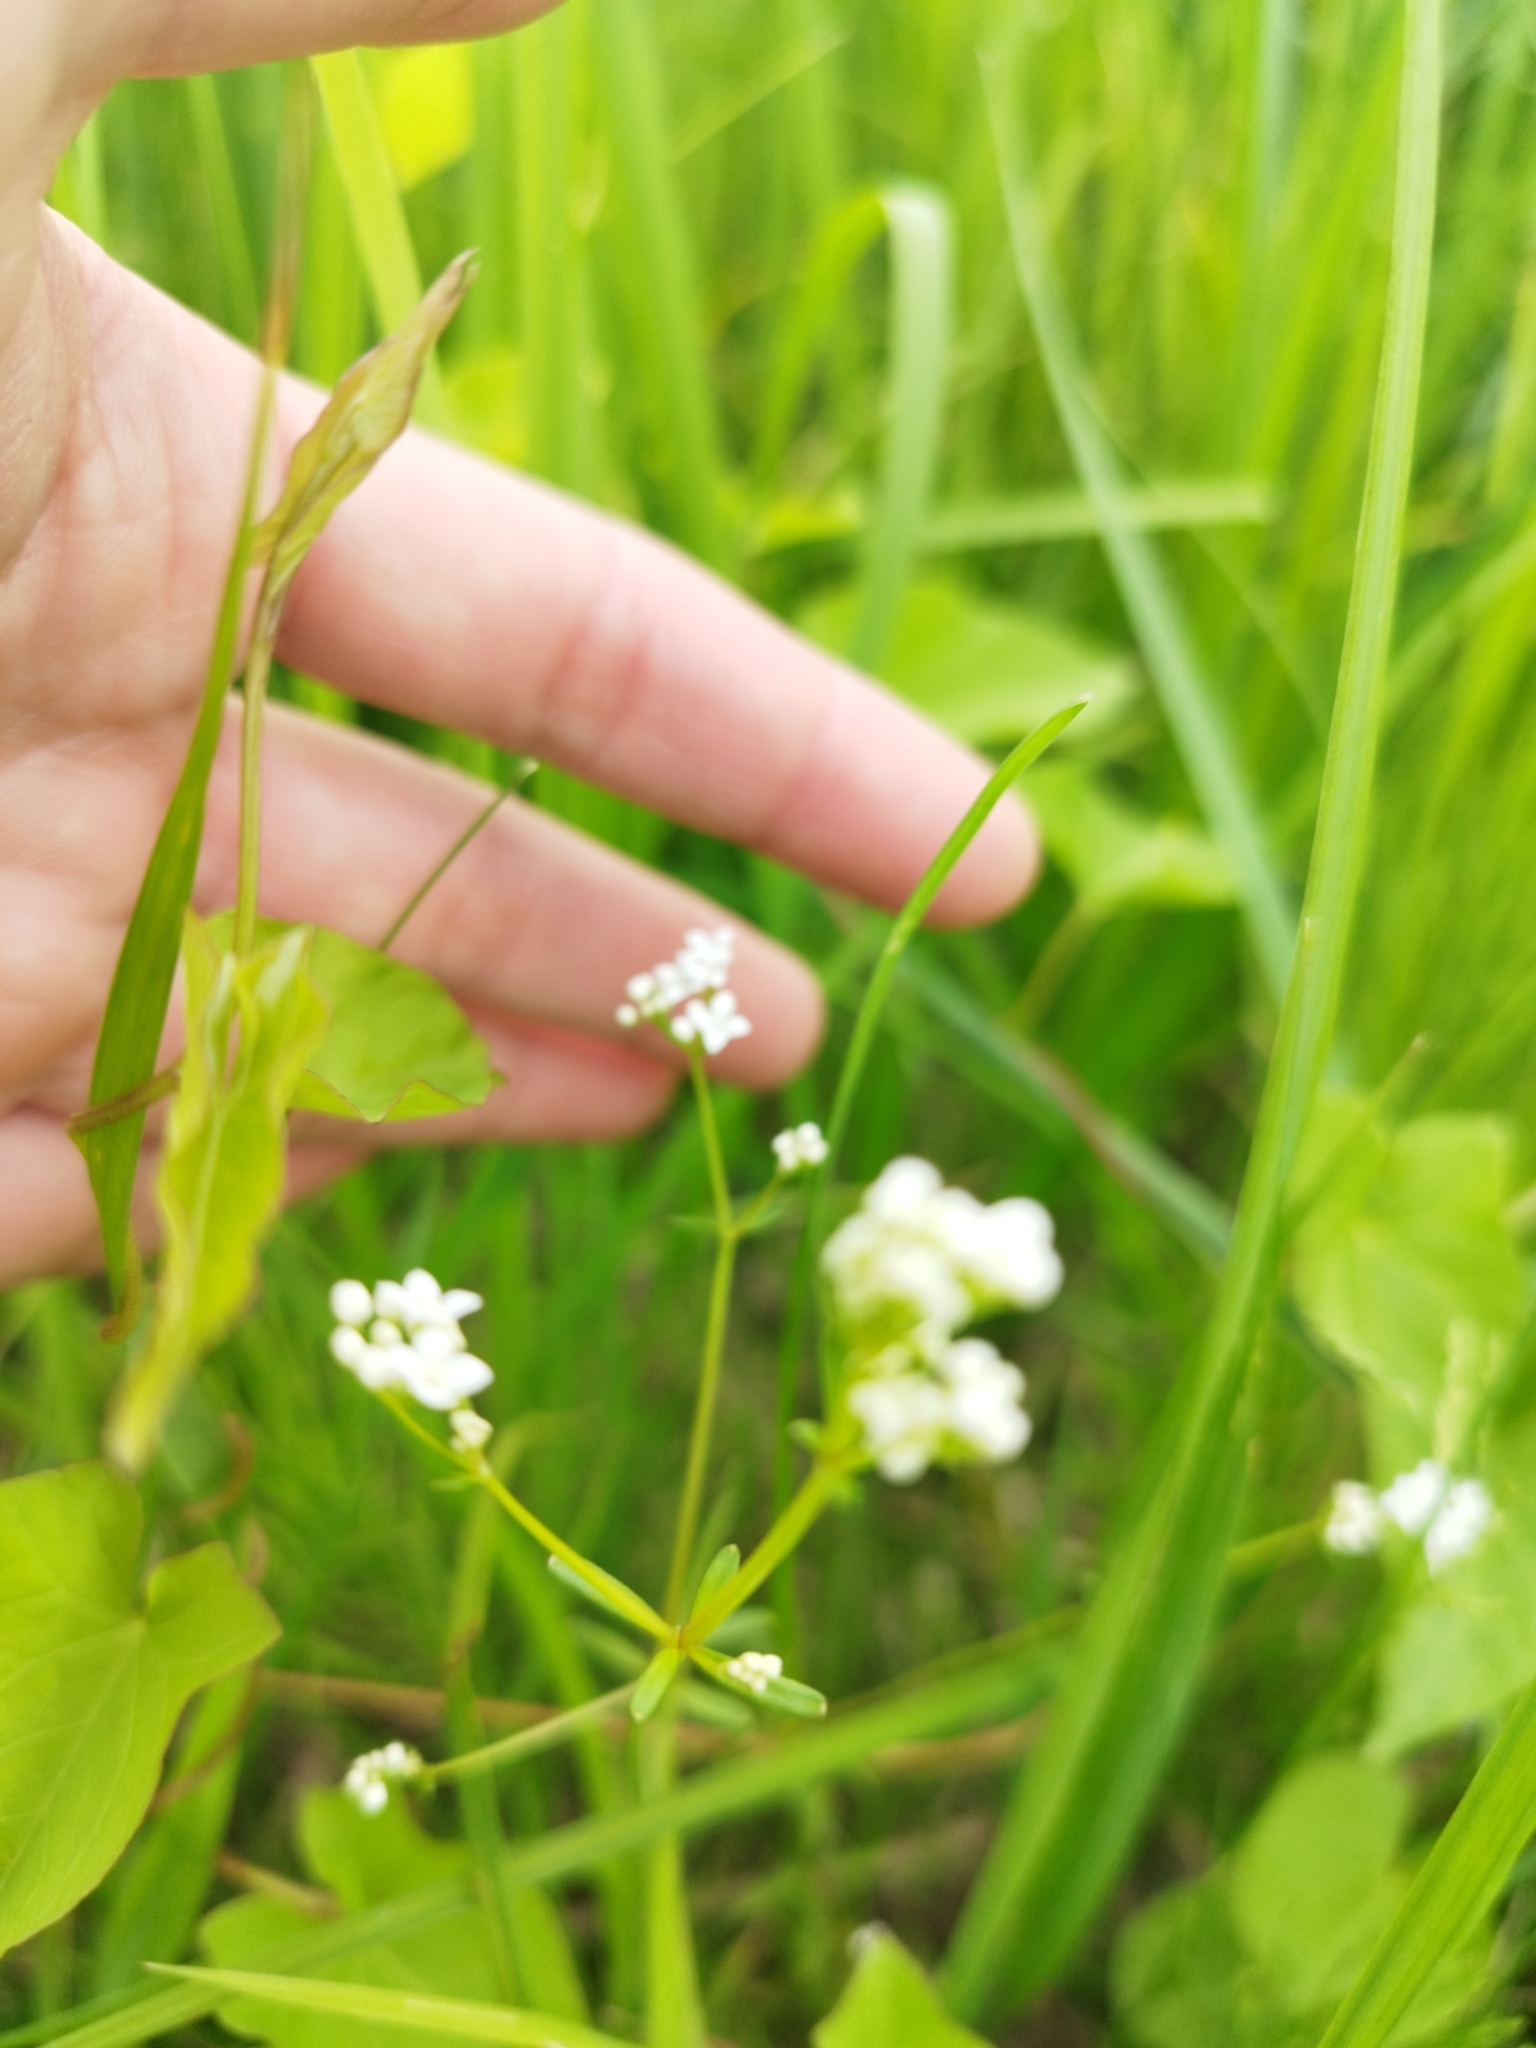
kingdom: Plantae
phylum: Tracheophyta
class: Magnoliopsida
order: Gentianales
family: Rubiaceae
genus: Galium
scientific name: Galium palustre
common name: Common marsh-bedstraw
